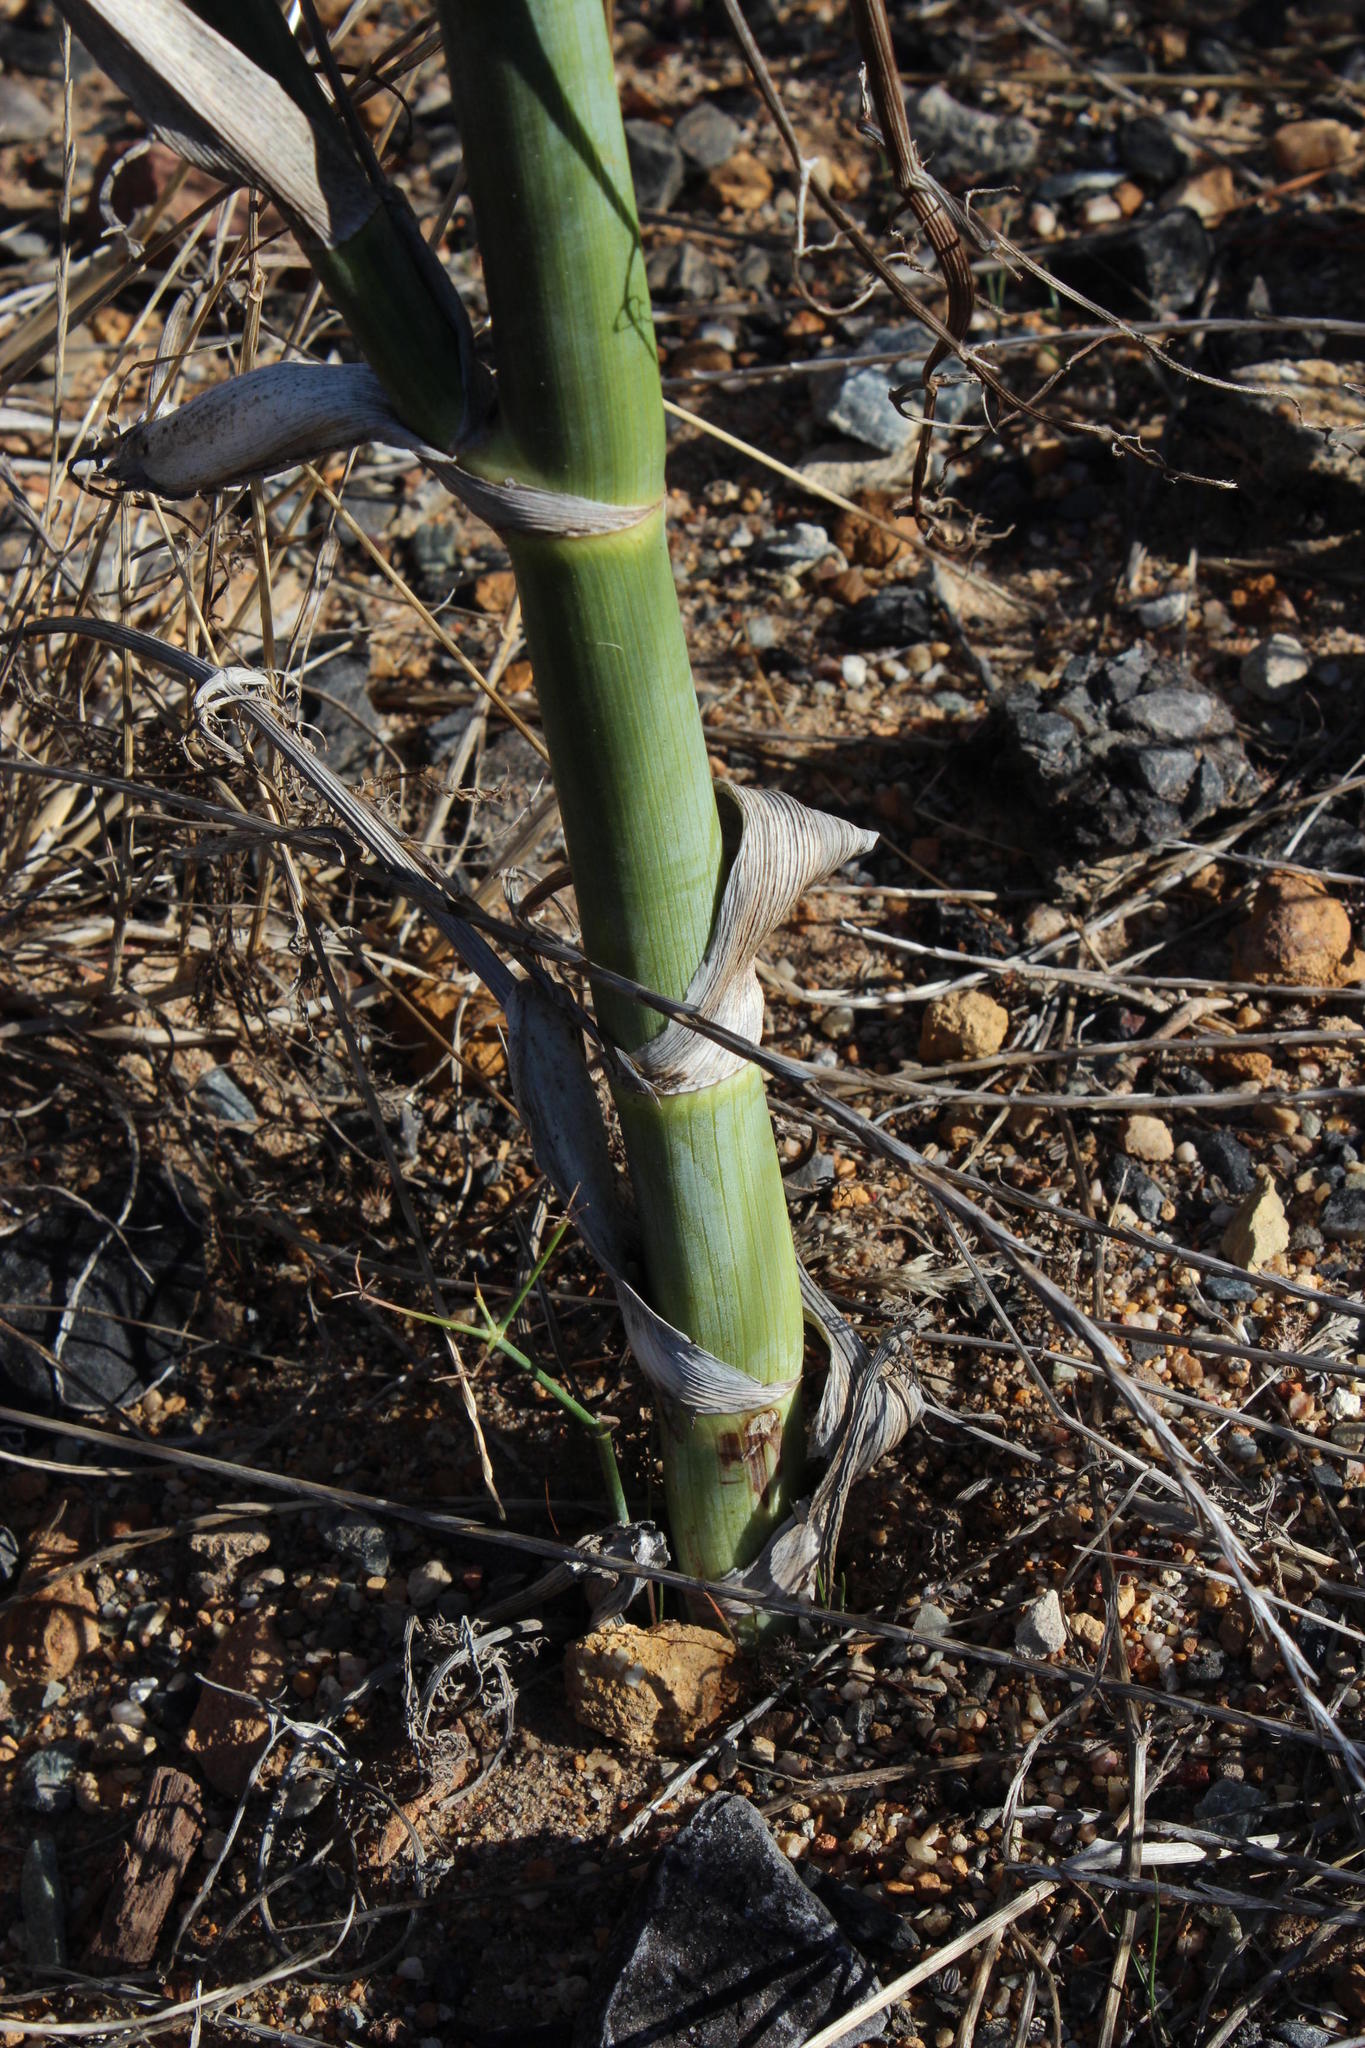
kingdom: Plantae
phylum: Tracheophyta
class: Magnoliopsida
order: Apiales
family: Apiaceae
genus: Foeniculum
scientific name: Foeniculum vulgare
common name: Fennel
